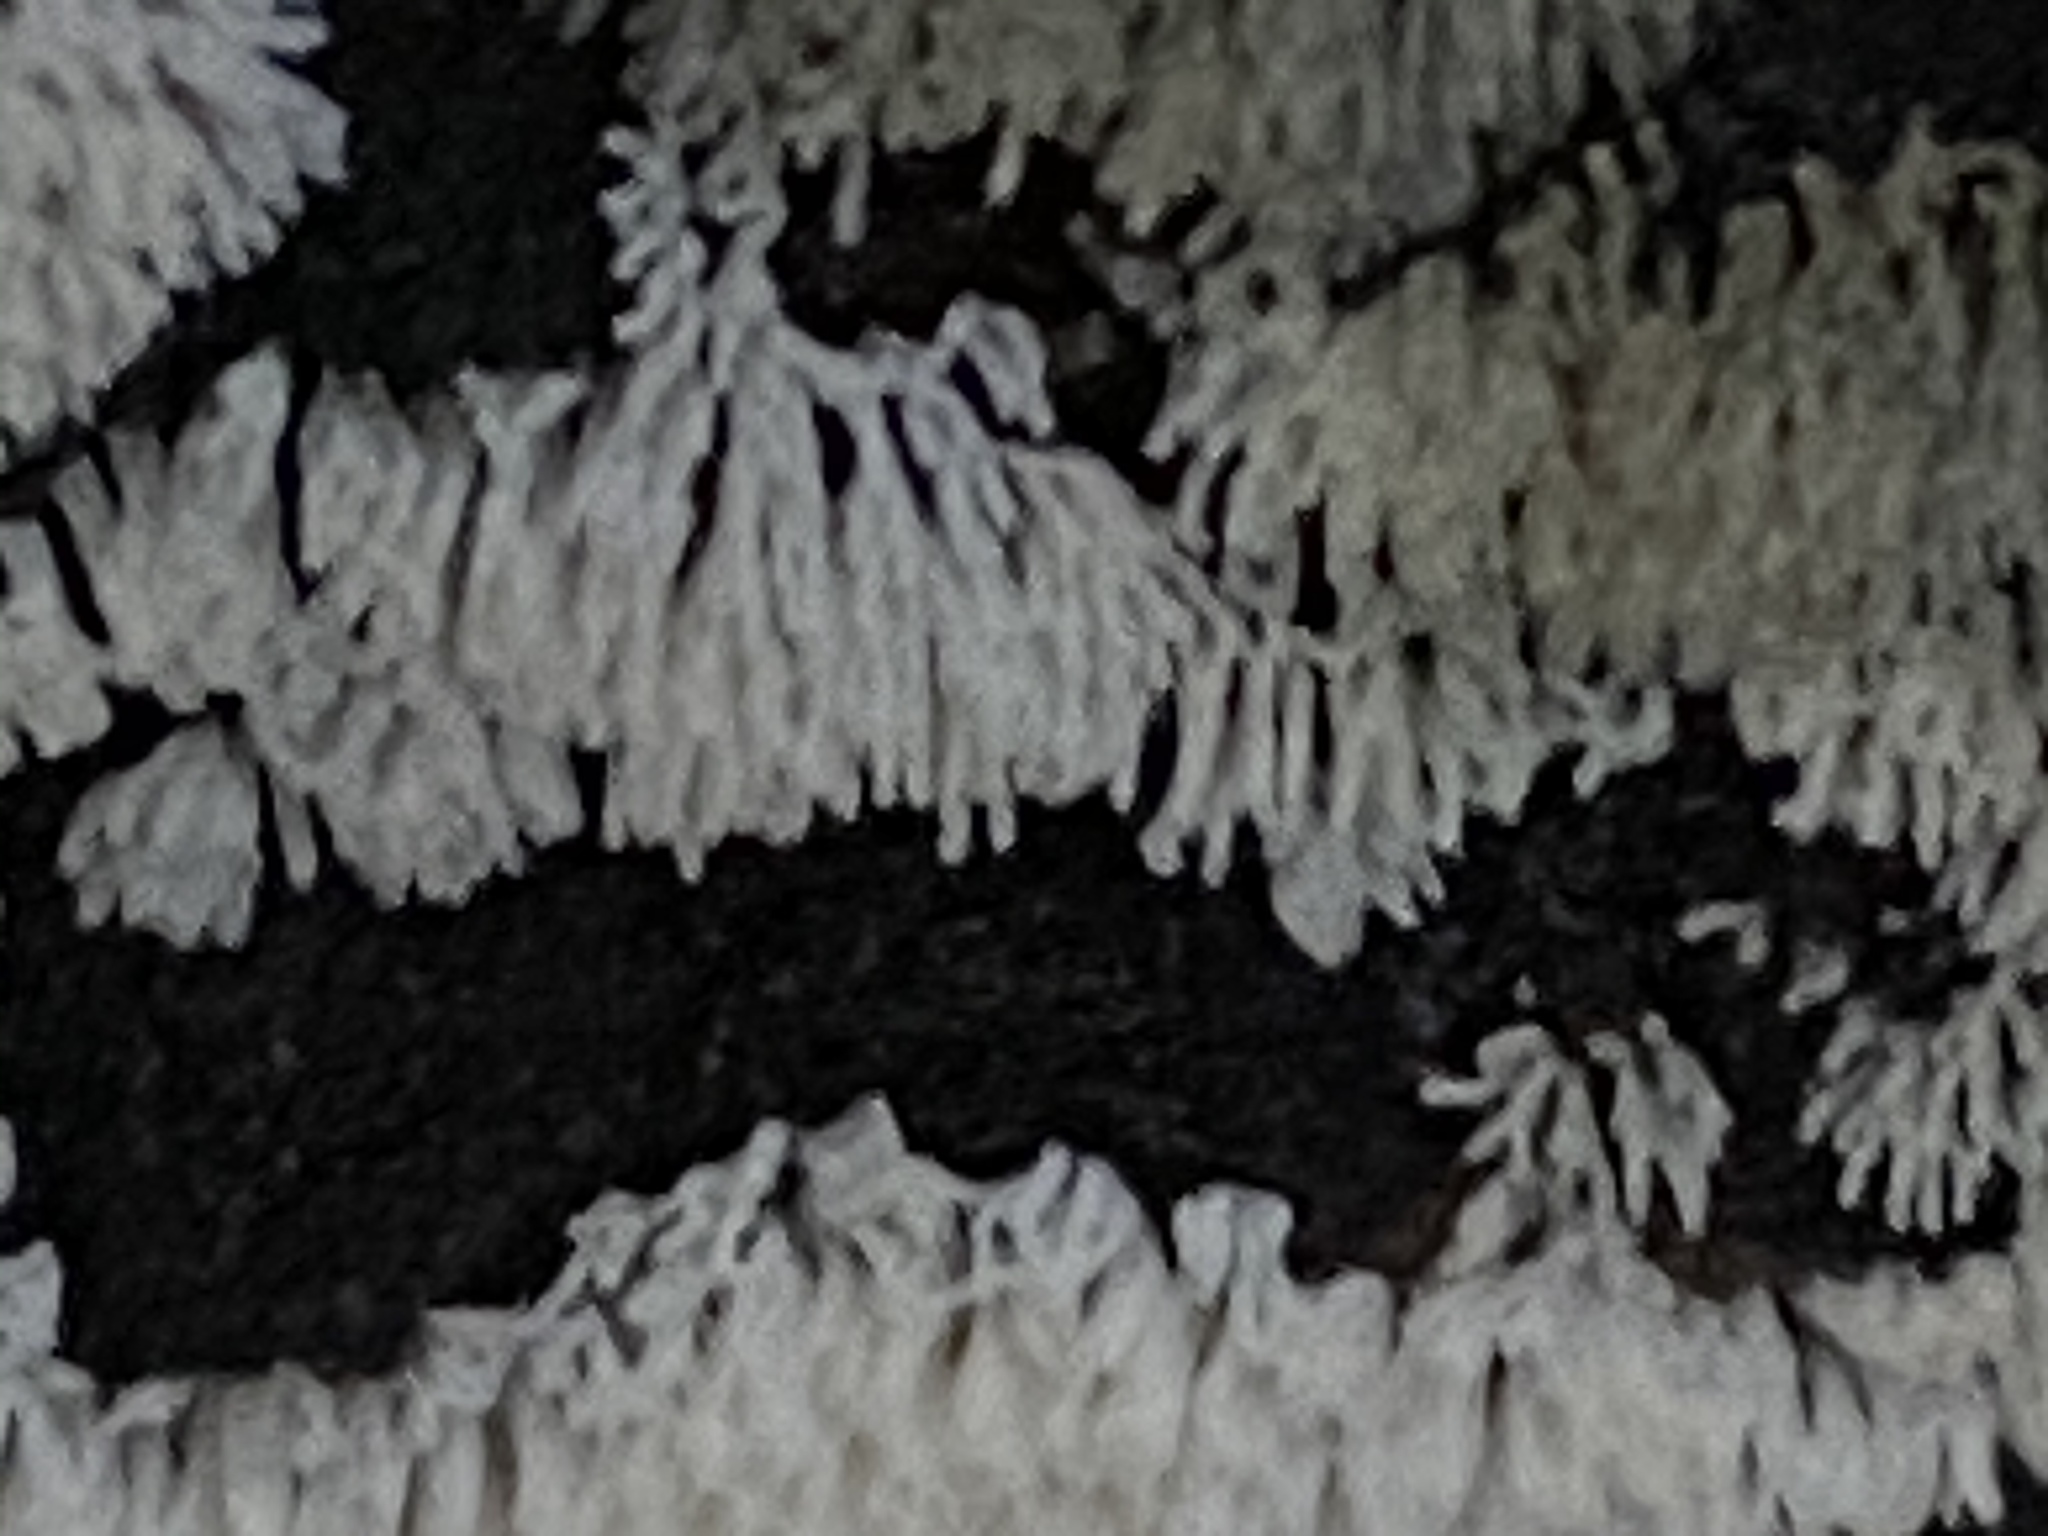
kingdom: Protozoa
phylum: Mycetozoa
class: Protosteliomycetes
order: Ceratiomyxales
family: Ceratiomyxaceae
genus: Ceratiomyxa
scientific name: Ceratiomyxa fruticulosa
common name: Honeycomb coral slime mold
